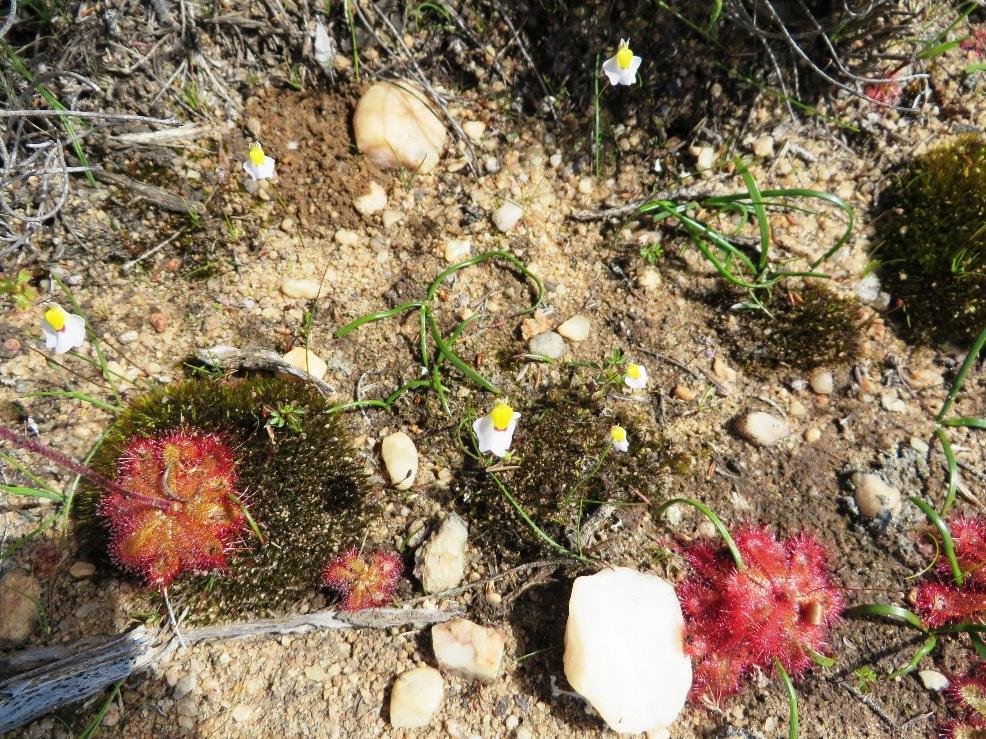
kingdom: Plantae
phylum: Tracheophyta
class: Magnoliopsida
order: Lamiales
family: Lentibulariaceae
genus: Utricularia
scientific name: Utricularia bisquamata
